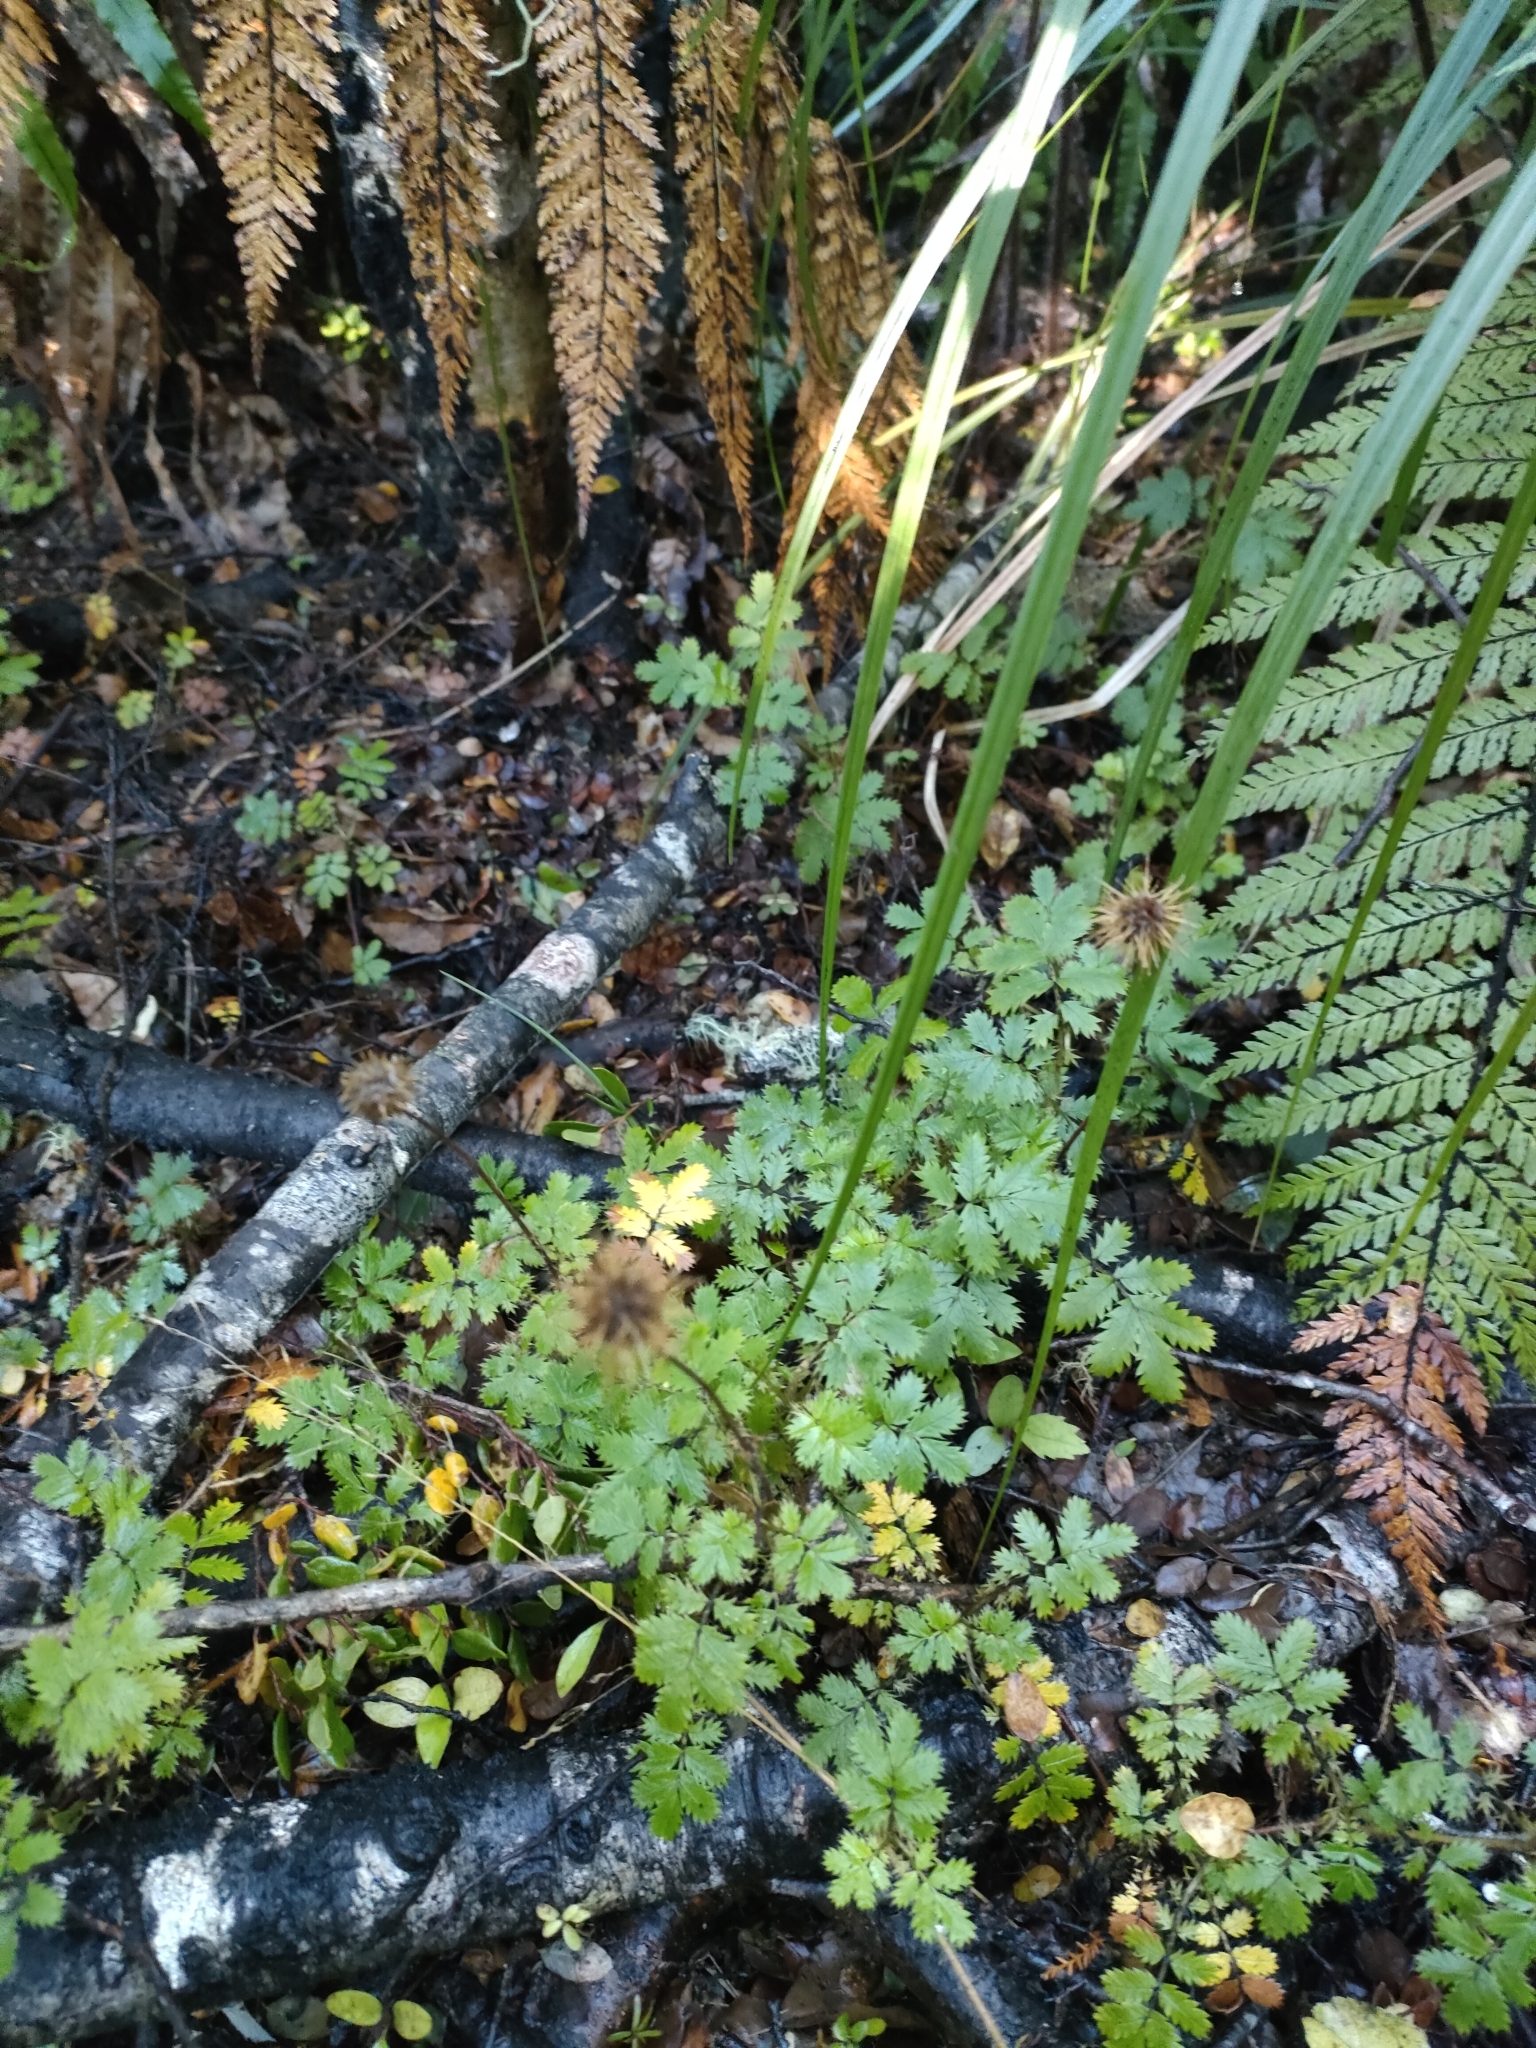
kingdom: Plantae
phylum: Tracheophyta
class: Magnoliopsida
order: Rosales
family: Rosaceae
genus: Acaena
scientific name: Acaena anserinifolia
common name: Bronze pirri-pirri-bur
